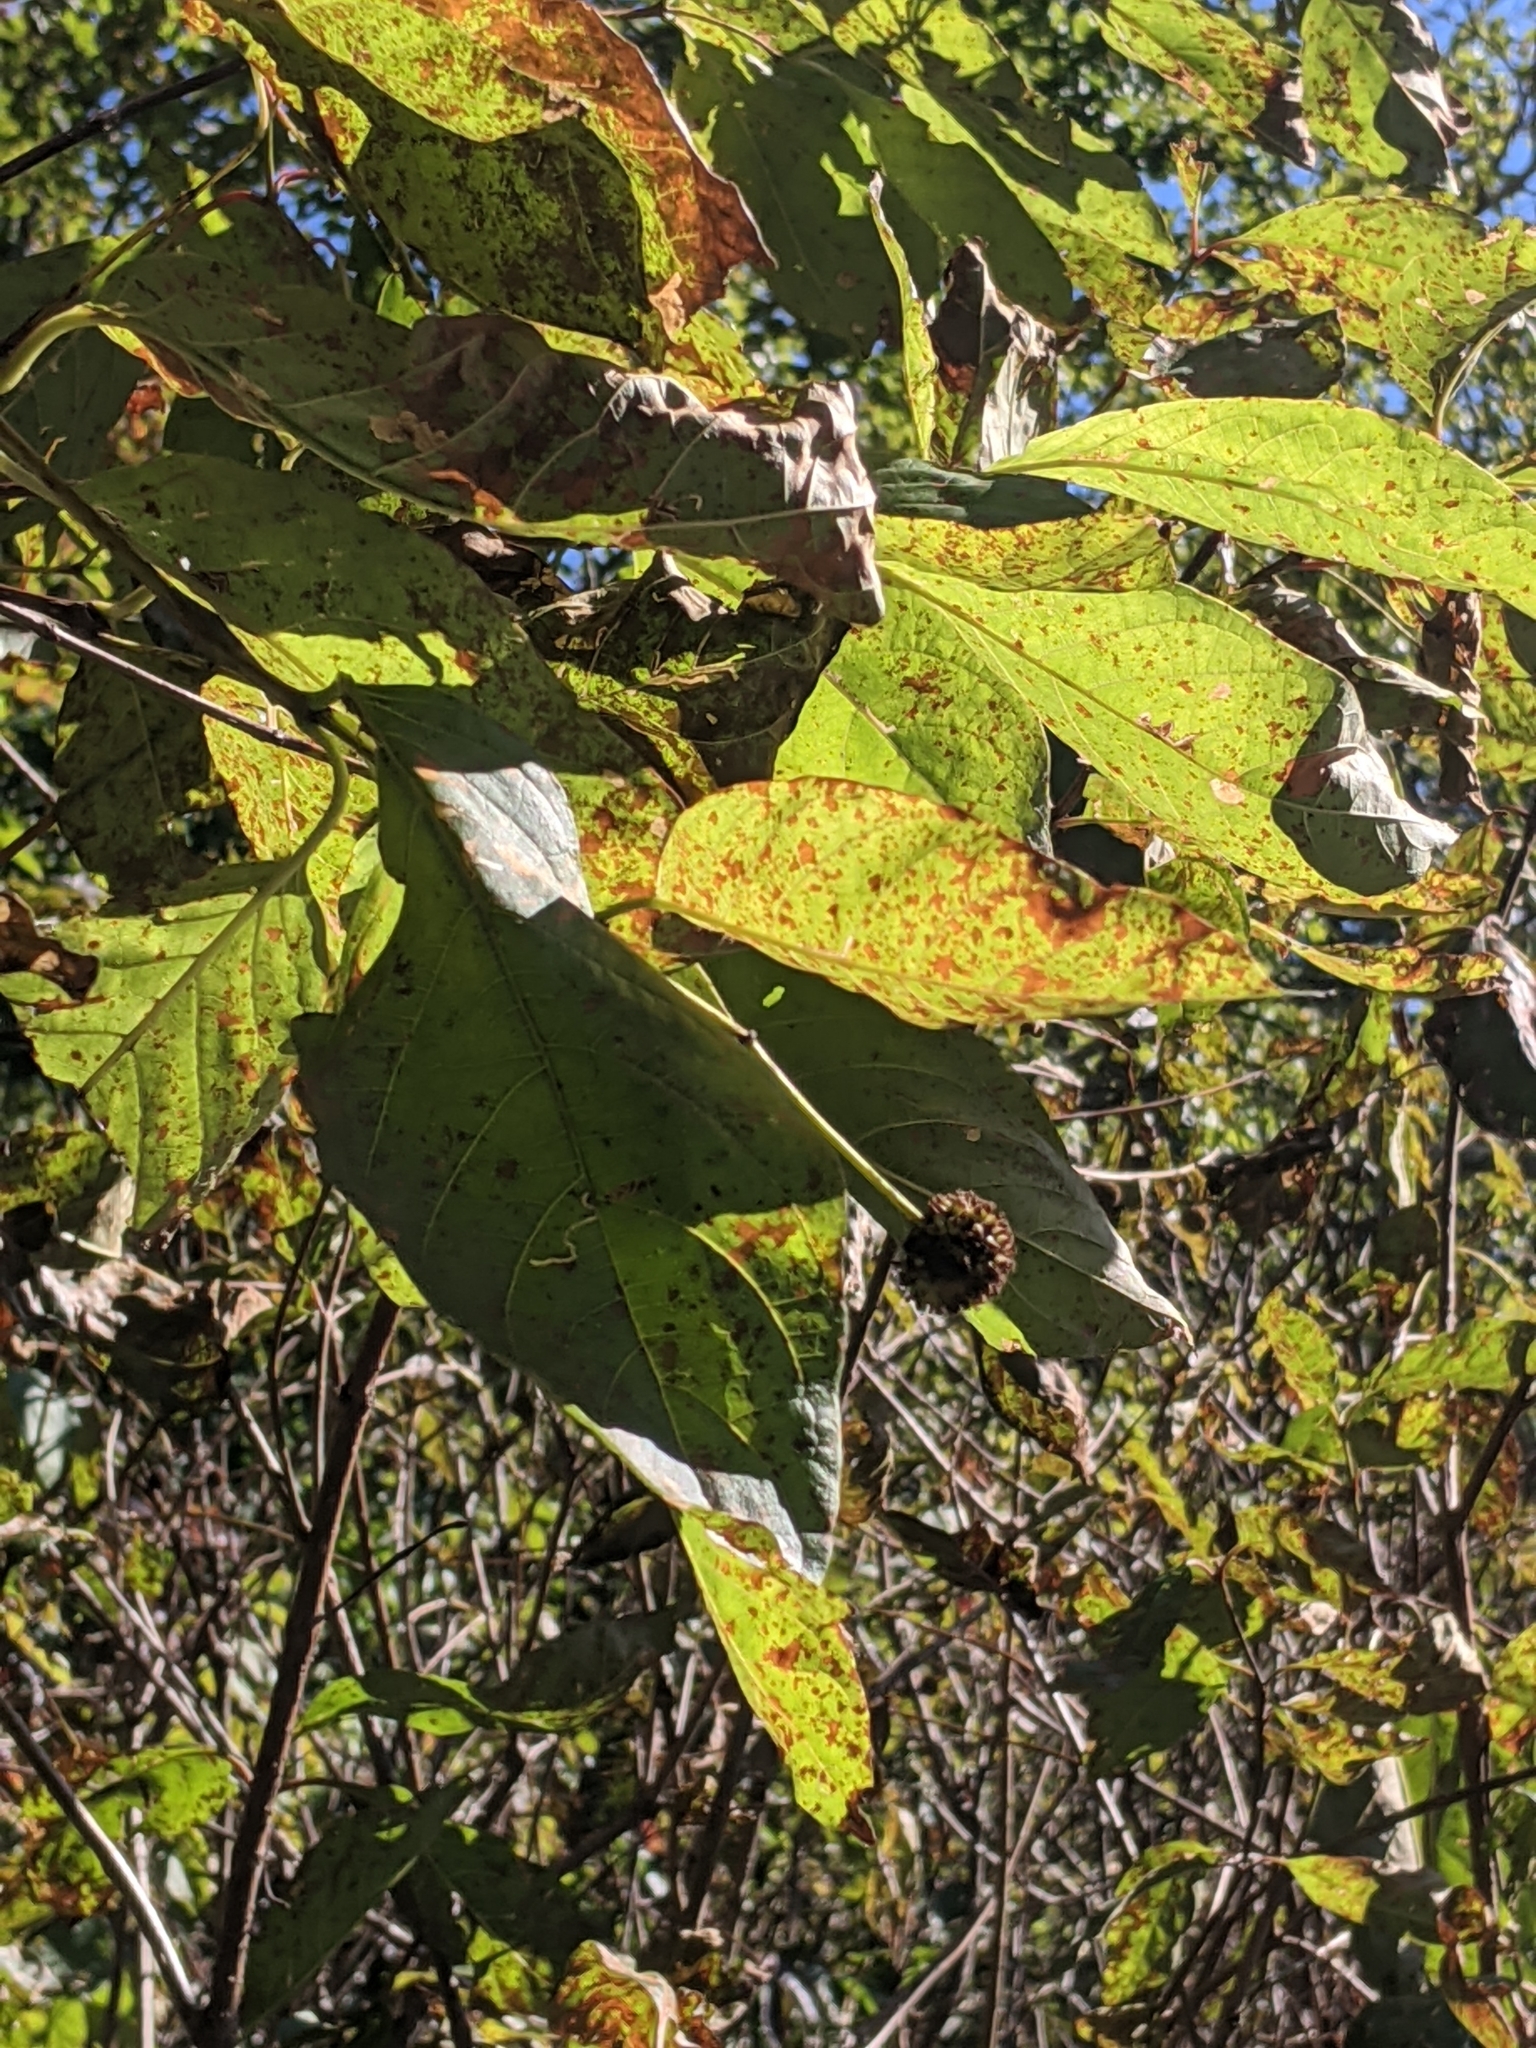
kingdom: Plantae
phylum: Tracheophyta
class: Magnoliopsida
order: Gentianales
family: Rubiaceae
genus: Cephalanthus
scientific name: Cephalanthus occidentalis
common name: Button-willow
